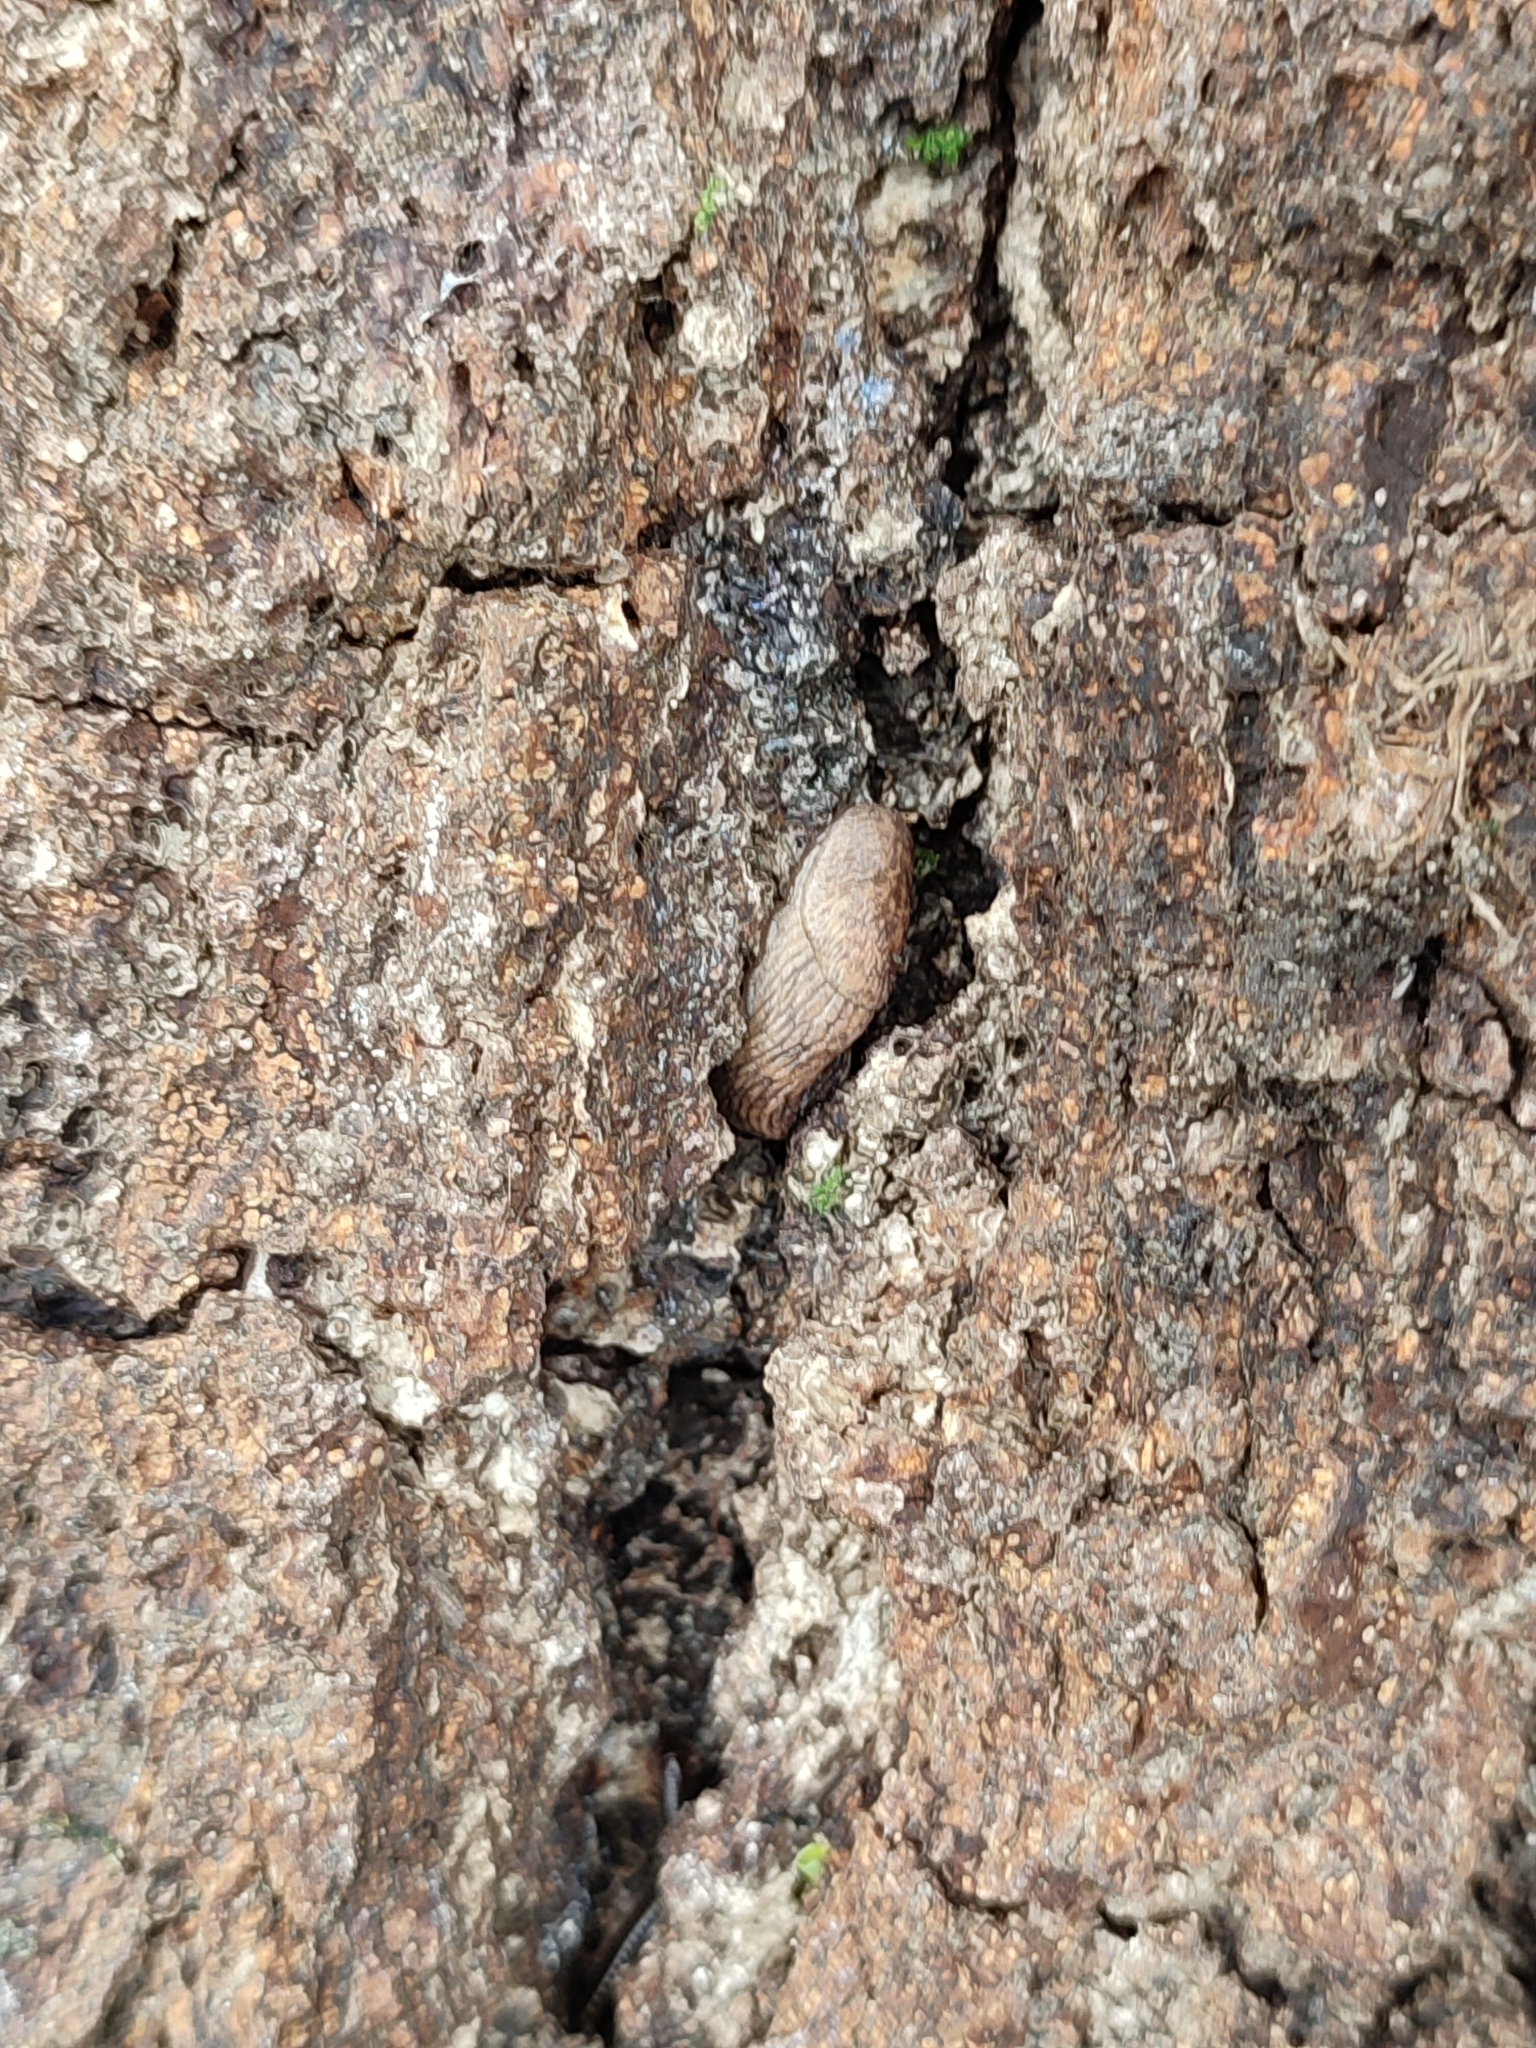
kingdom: Animalia
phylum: Mollusca
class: Gastropoda
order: Stylommatophora
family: Agriolimacidae
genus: Deroceras
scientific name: Deroceras reticulatum
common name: Gray field slug
